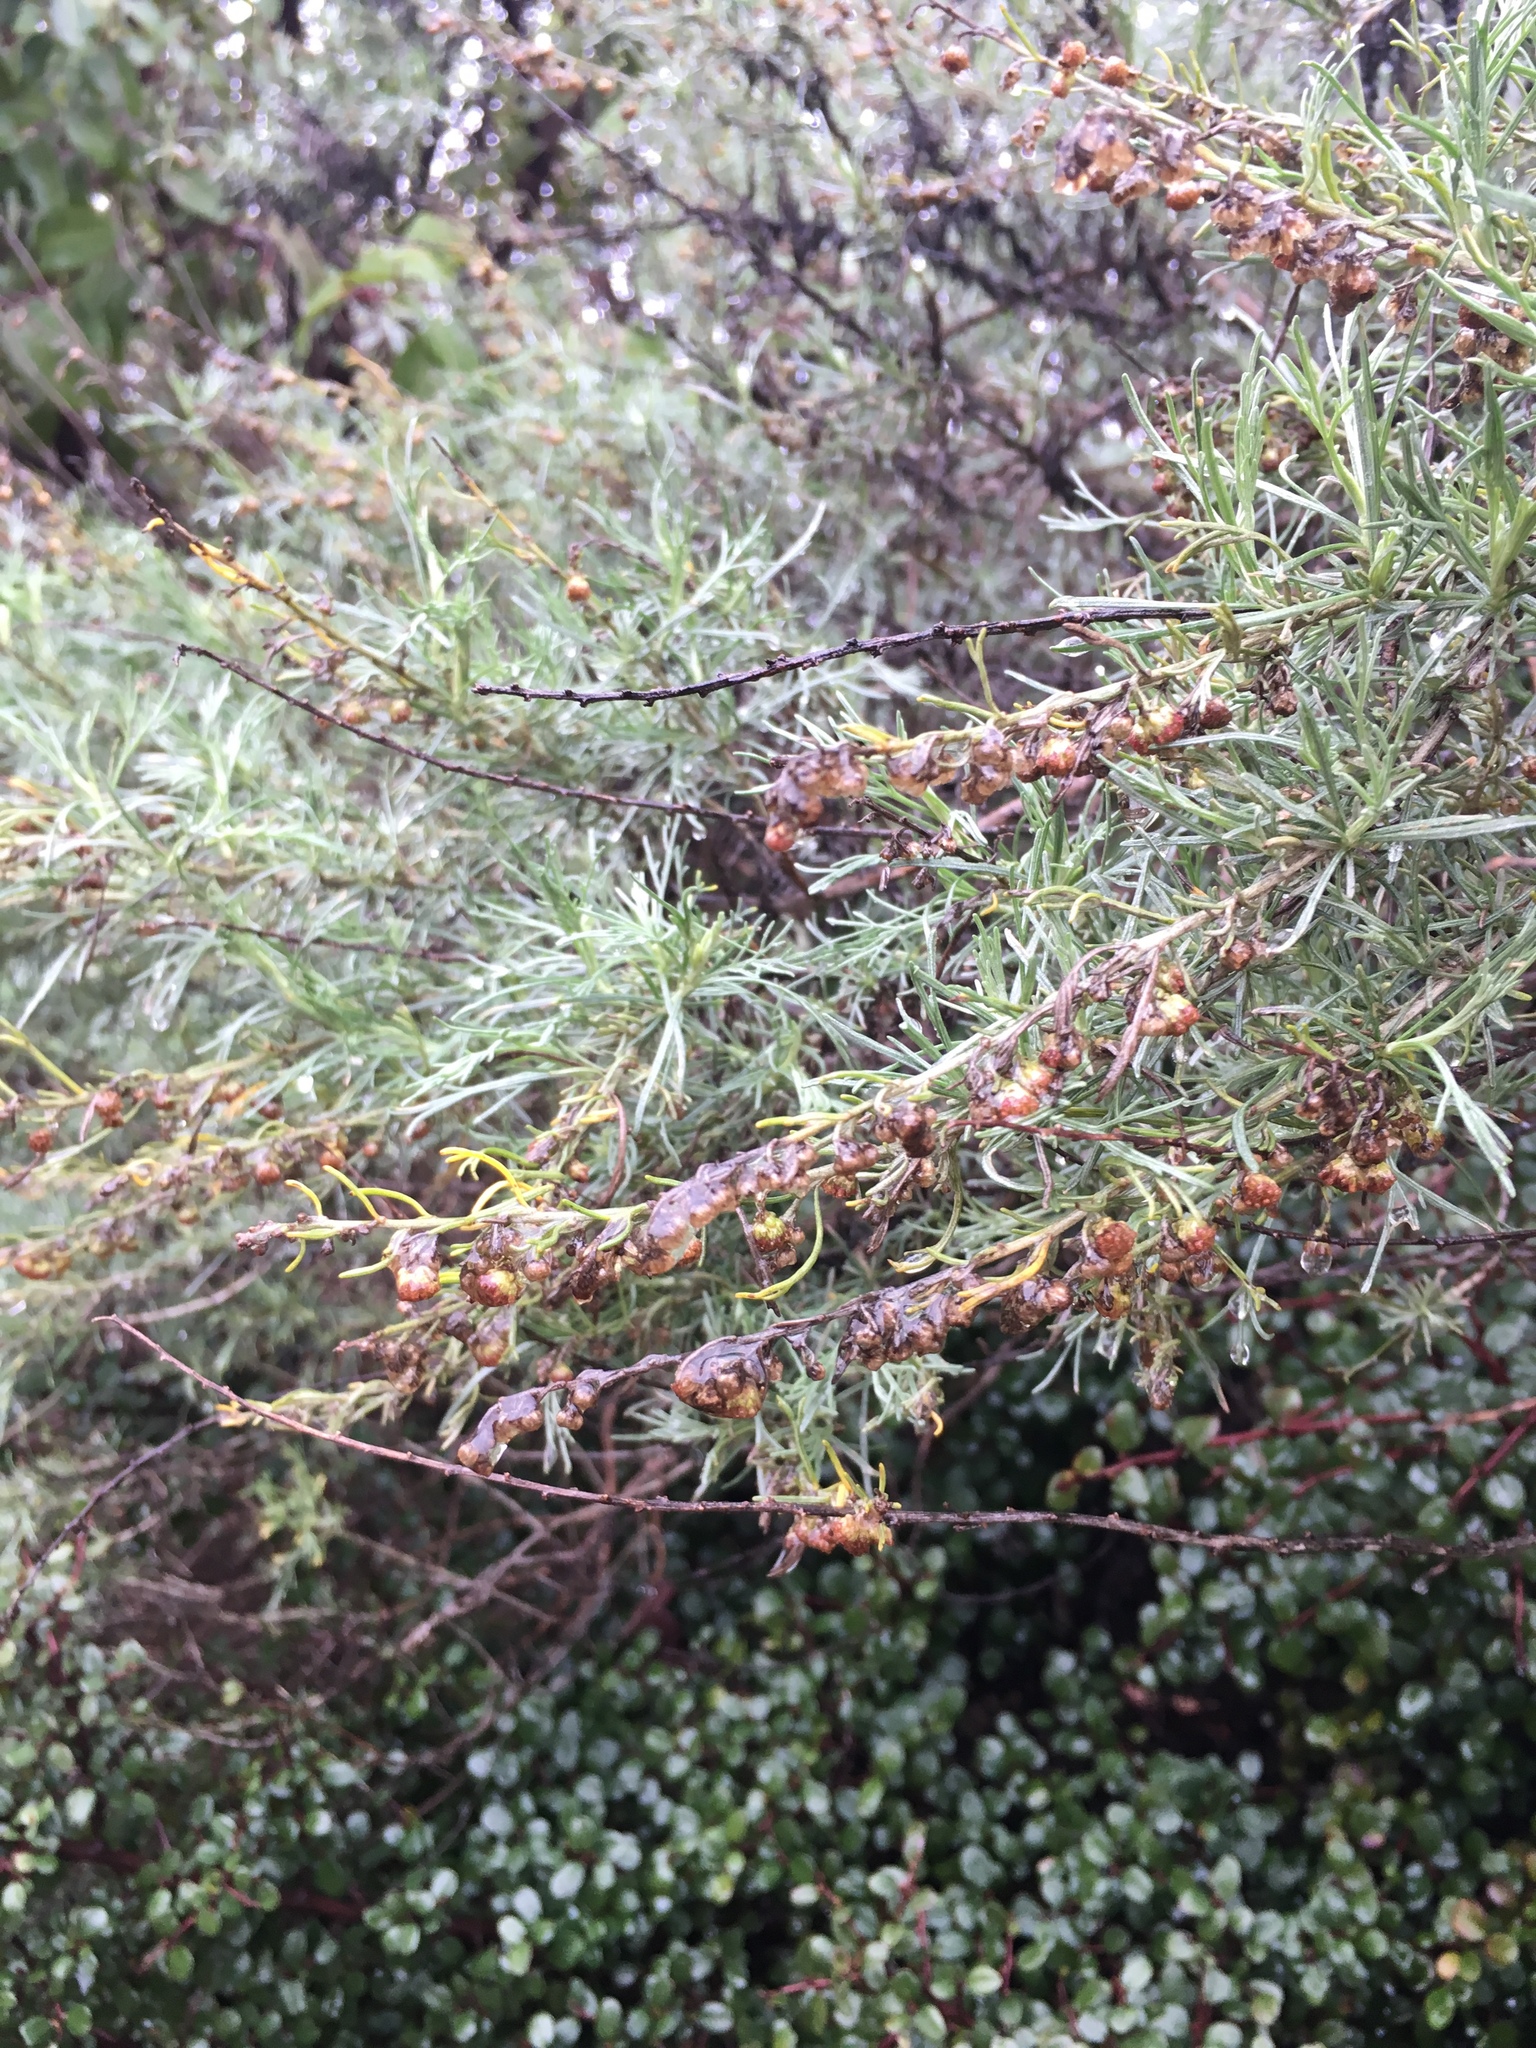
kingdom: Plantae
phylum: Tracheophyta
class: Magnoliopsida
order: Asterales
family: Asteraceae
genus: Artemisia
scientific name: Artemisia californica
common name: California sagebrush
